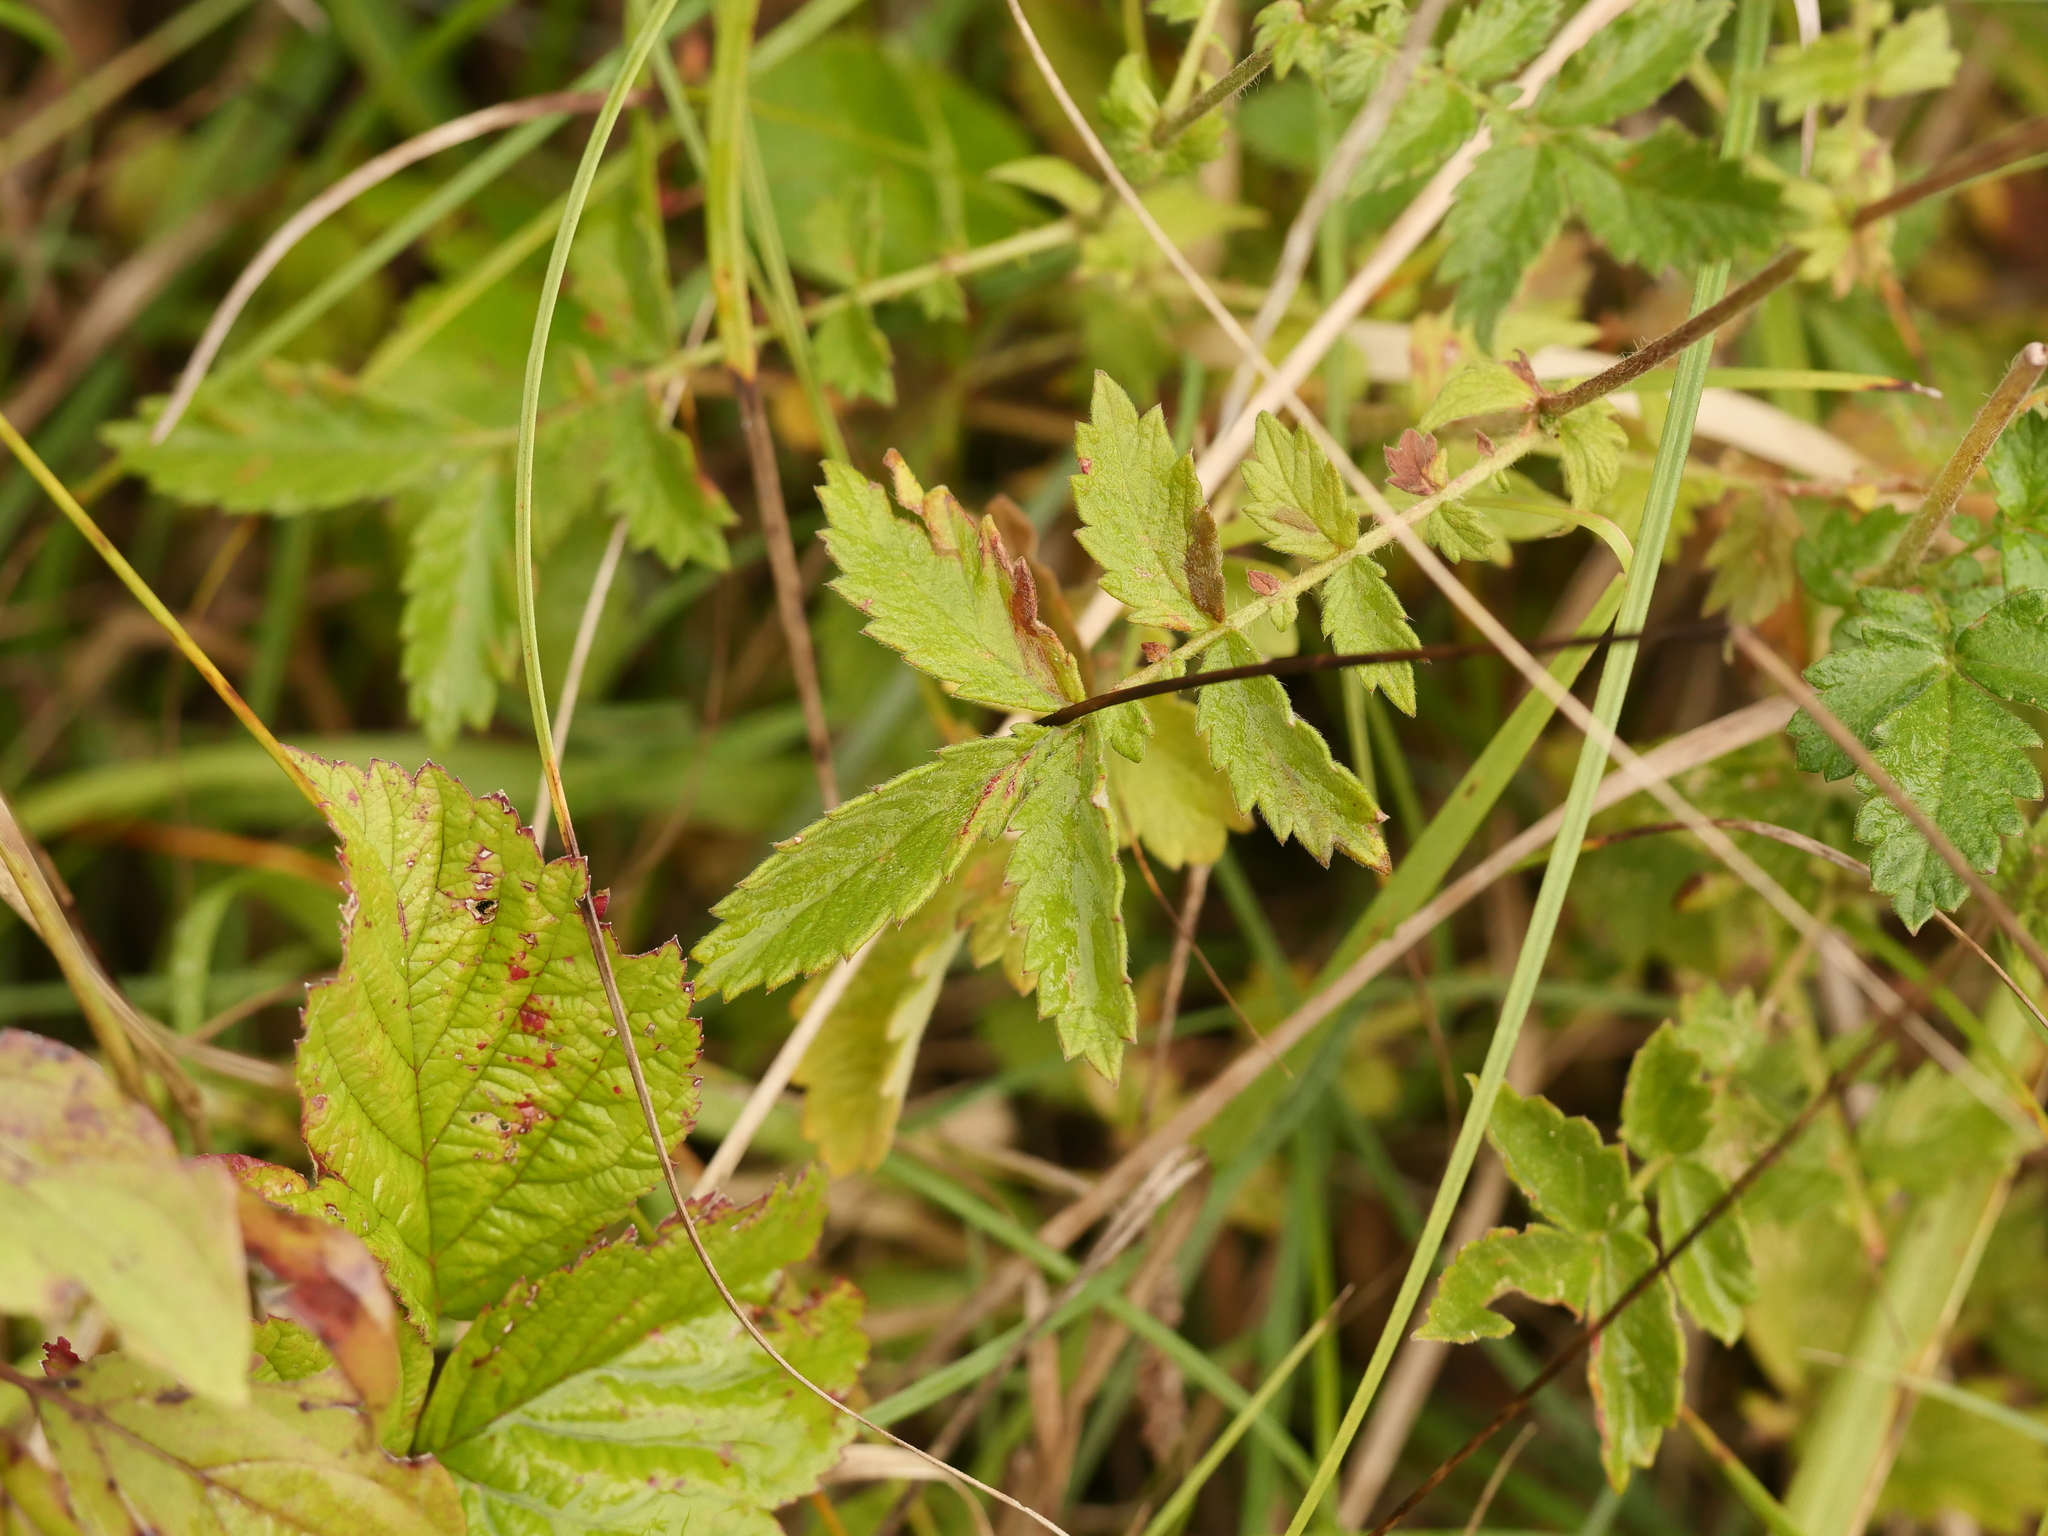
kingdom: Plantae
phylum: Tracheophyta
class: Magnoliopsida
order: Rosales
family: Rosaceae
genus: Agrimonia
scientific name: Agrimonia eupatoria
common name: Agrimony
